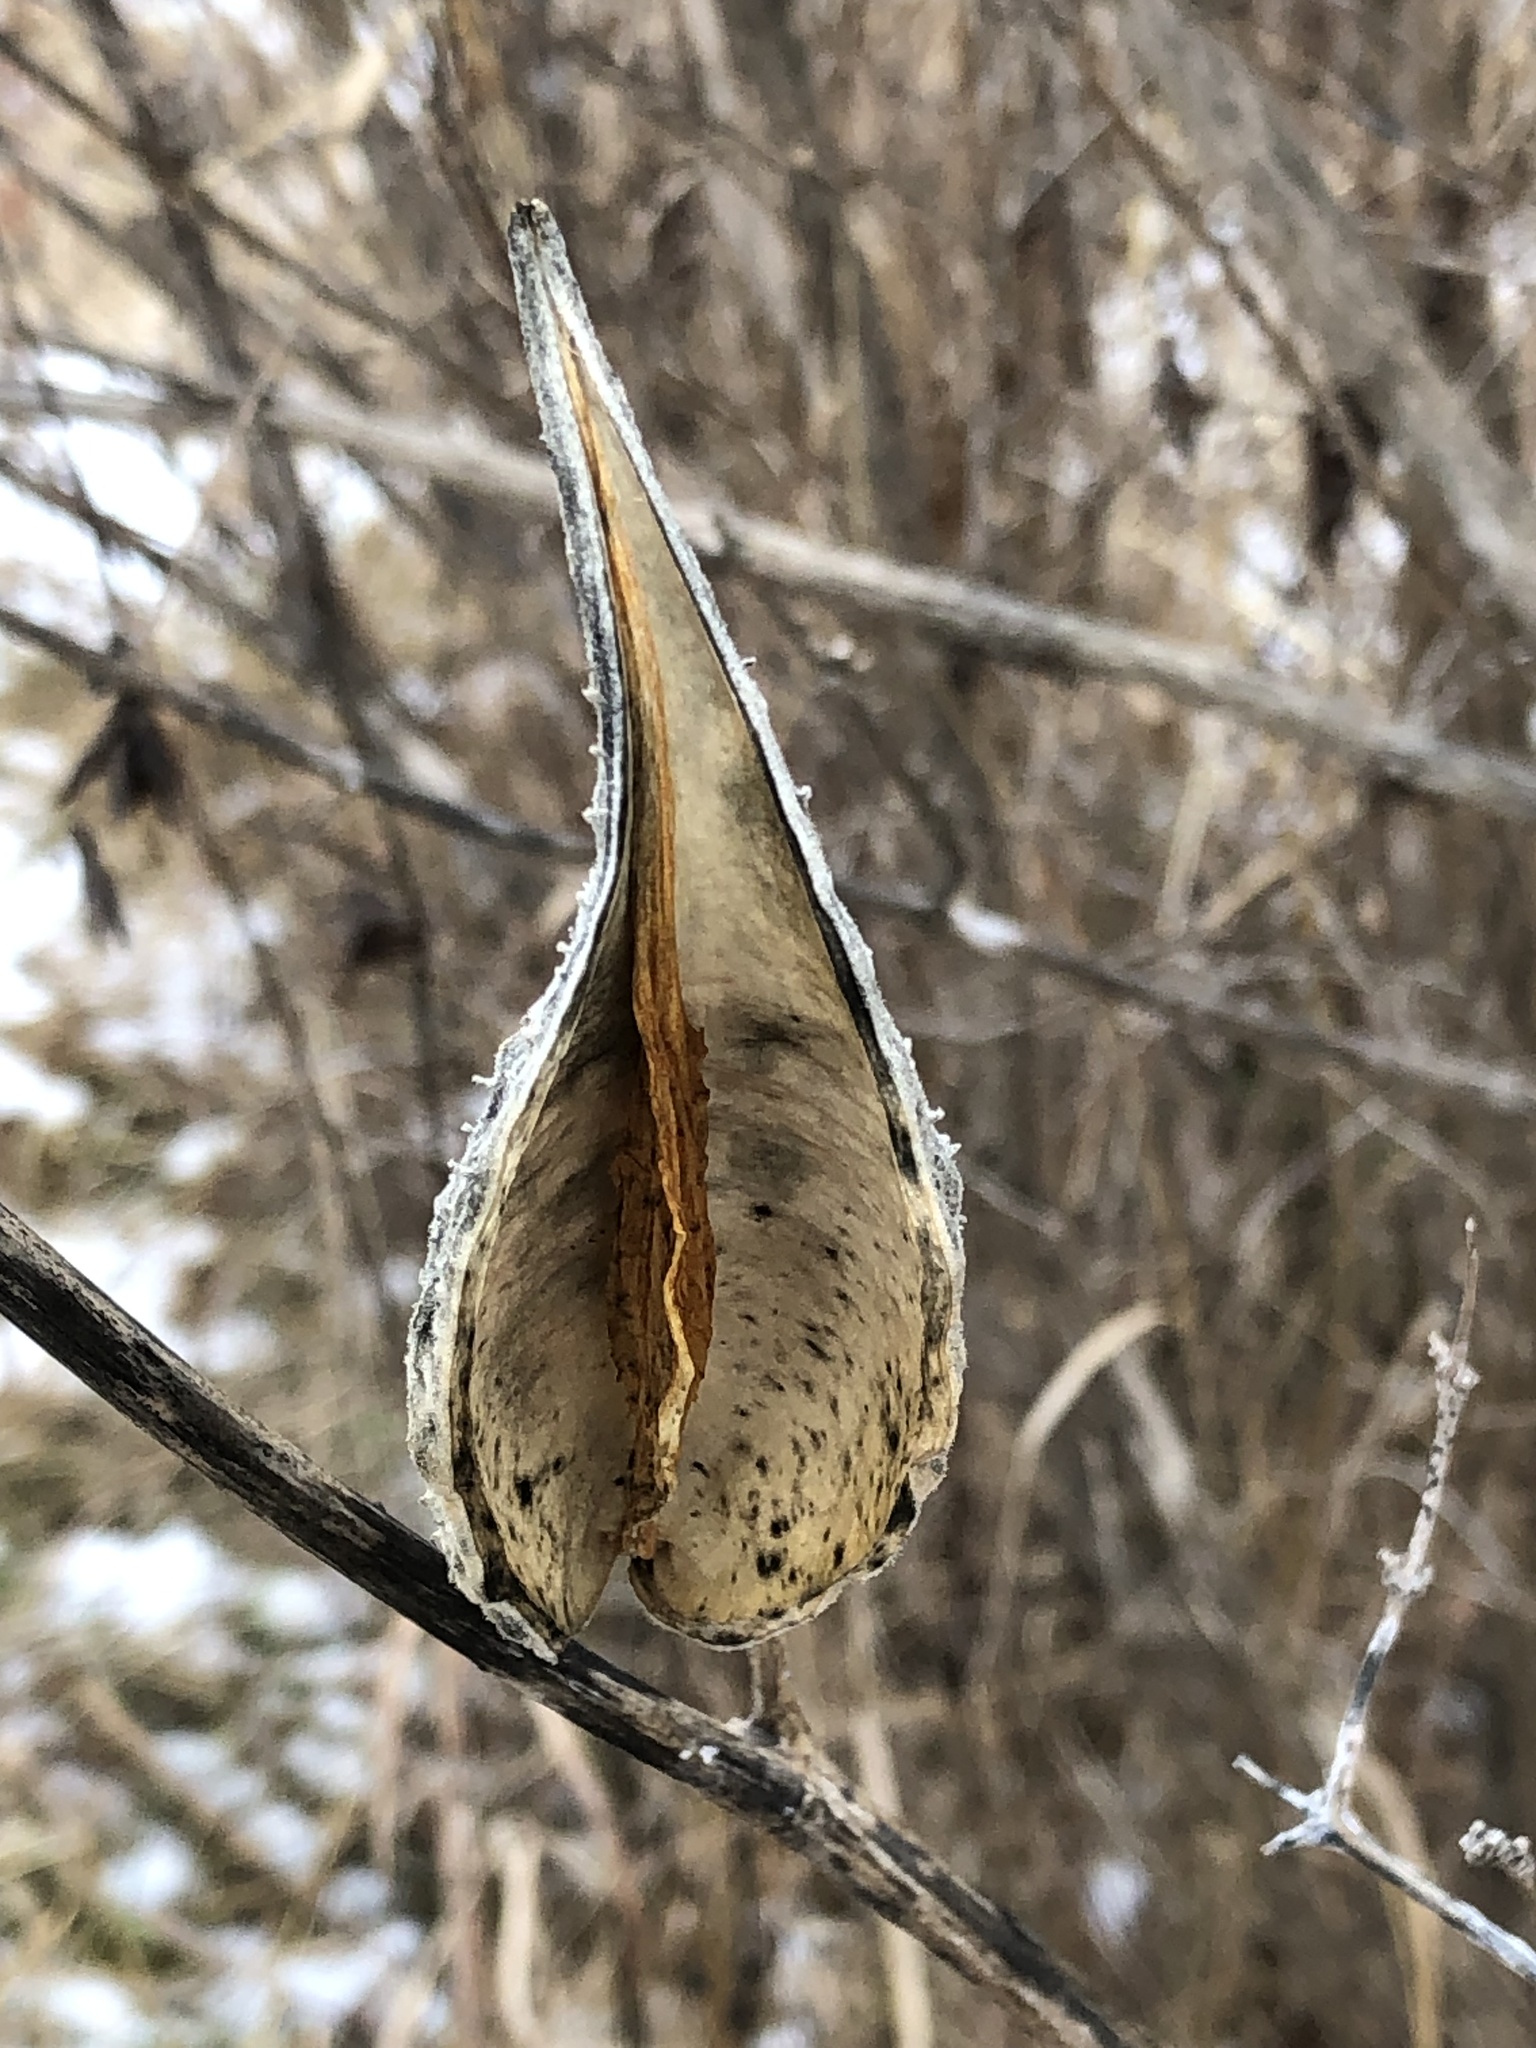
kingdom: Plantae
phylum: Tracheophyta
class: Magnoliopsida
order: Gentianales
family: Apocynaceae
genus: Asclepias
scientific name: Asclepias syriaca
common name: Common milkweed
